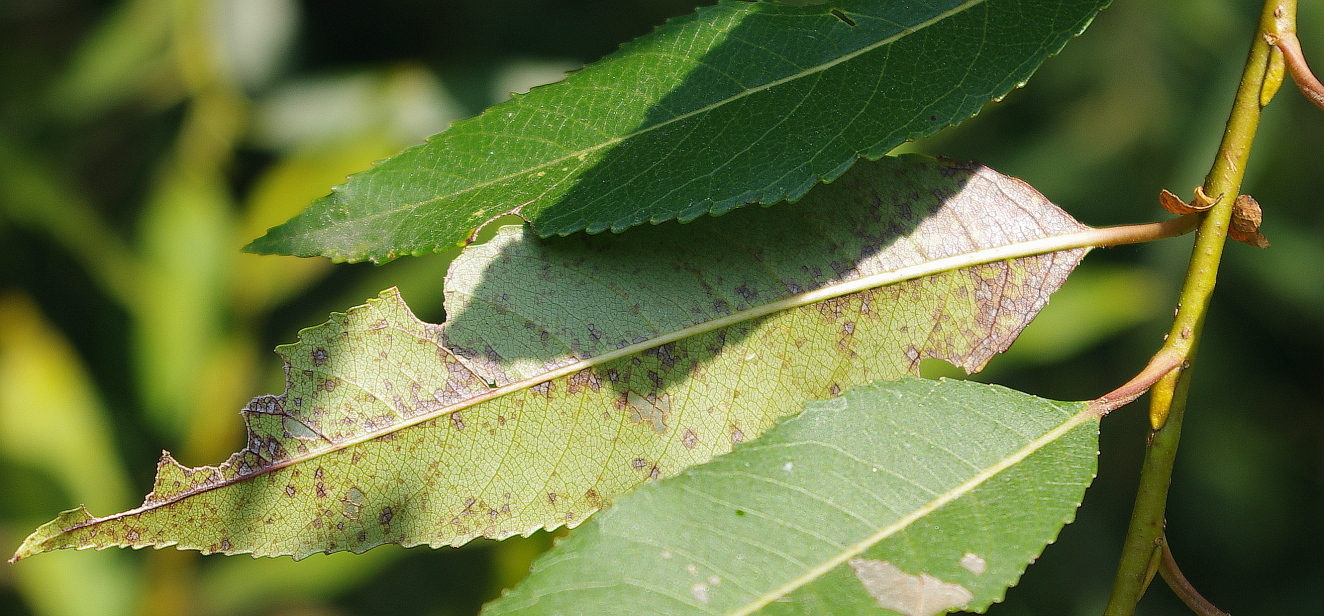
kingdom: Plantae
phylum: Tracheophyta
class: Magnoliopsida
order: Malpighiales
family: Salicaceae
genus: Salix
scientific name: Salix triandra
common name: Almond willow
